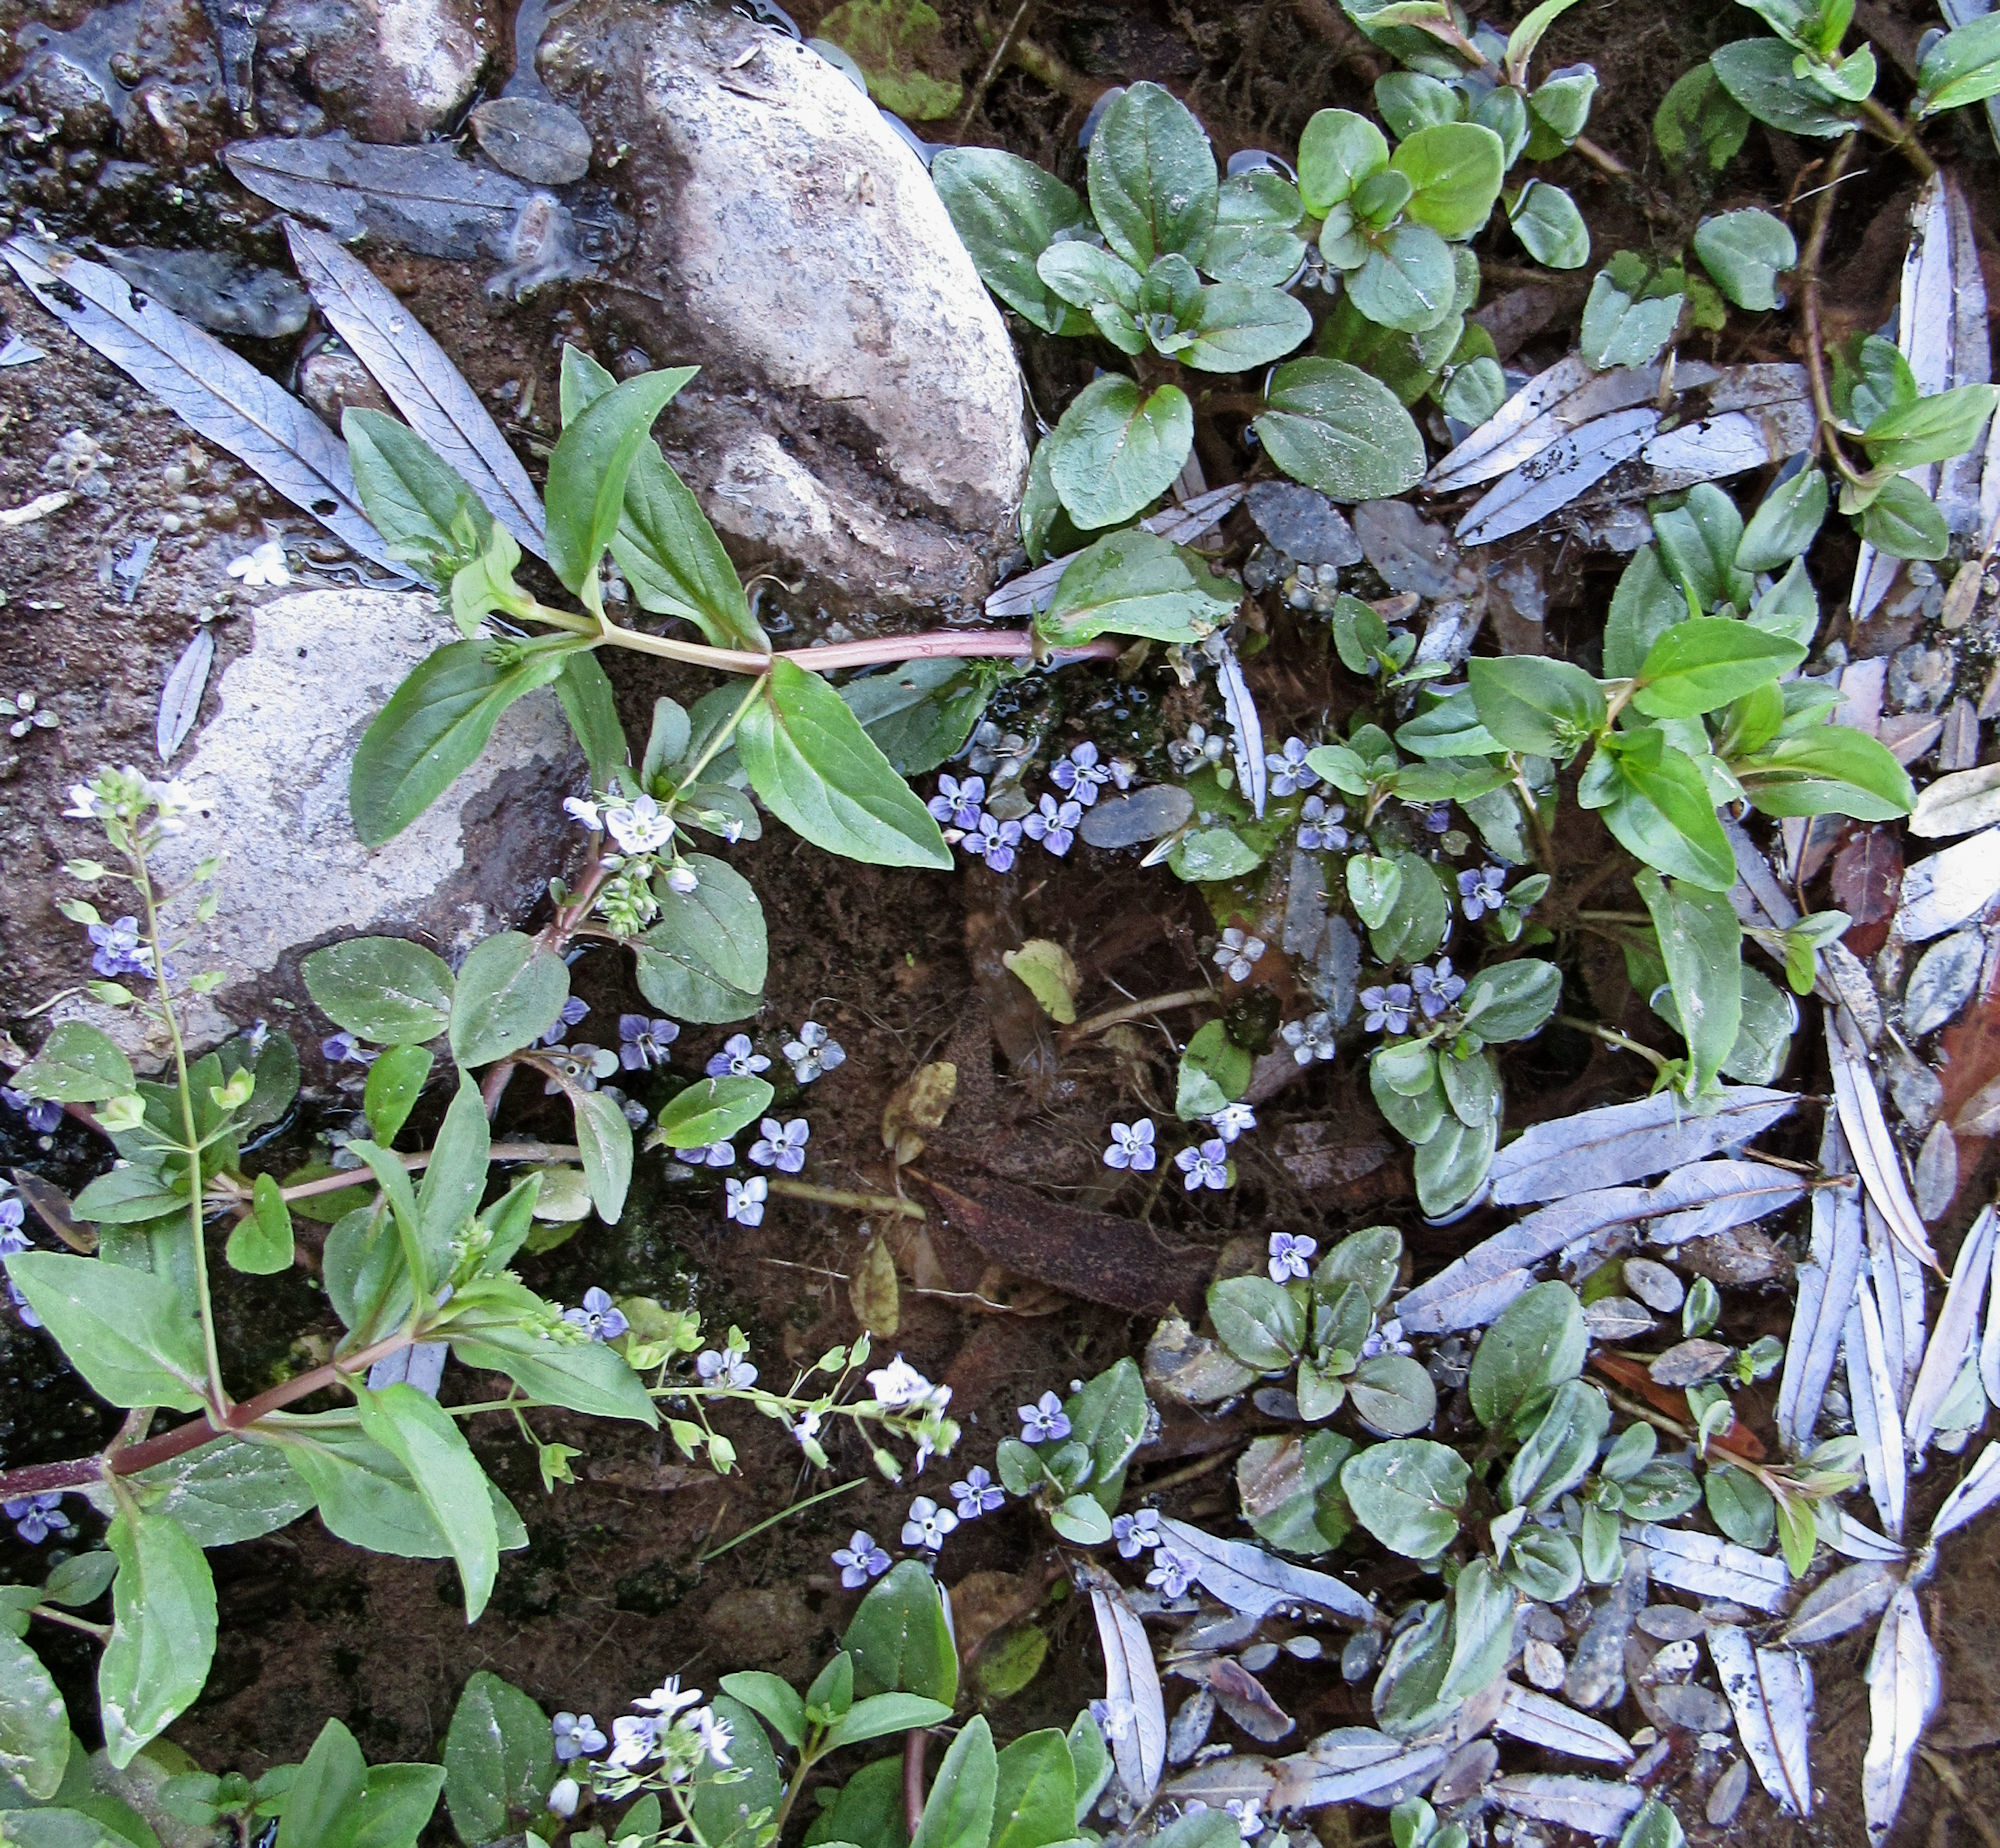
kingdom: Plantae
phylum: Tracheophyta
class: Magnoliopsida
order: Lamiales
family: Plantaginaceae
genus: Veronica
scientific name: Veronica anagallis-aquatica
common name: Water speedwell
